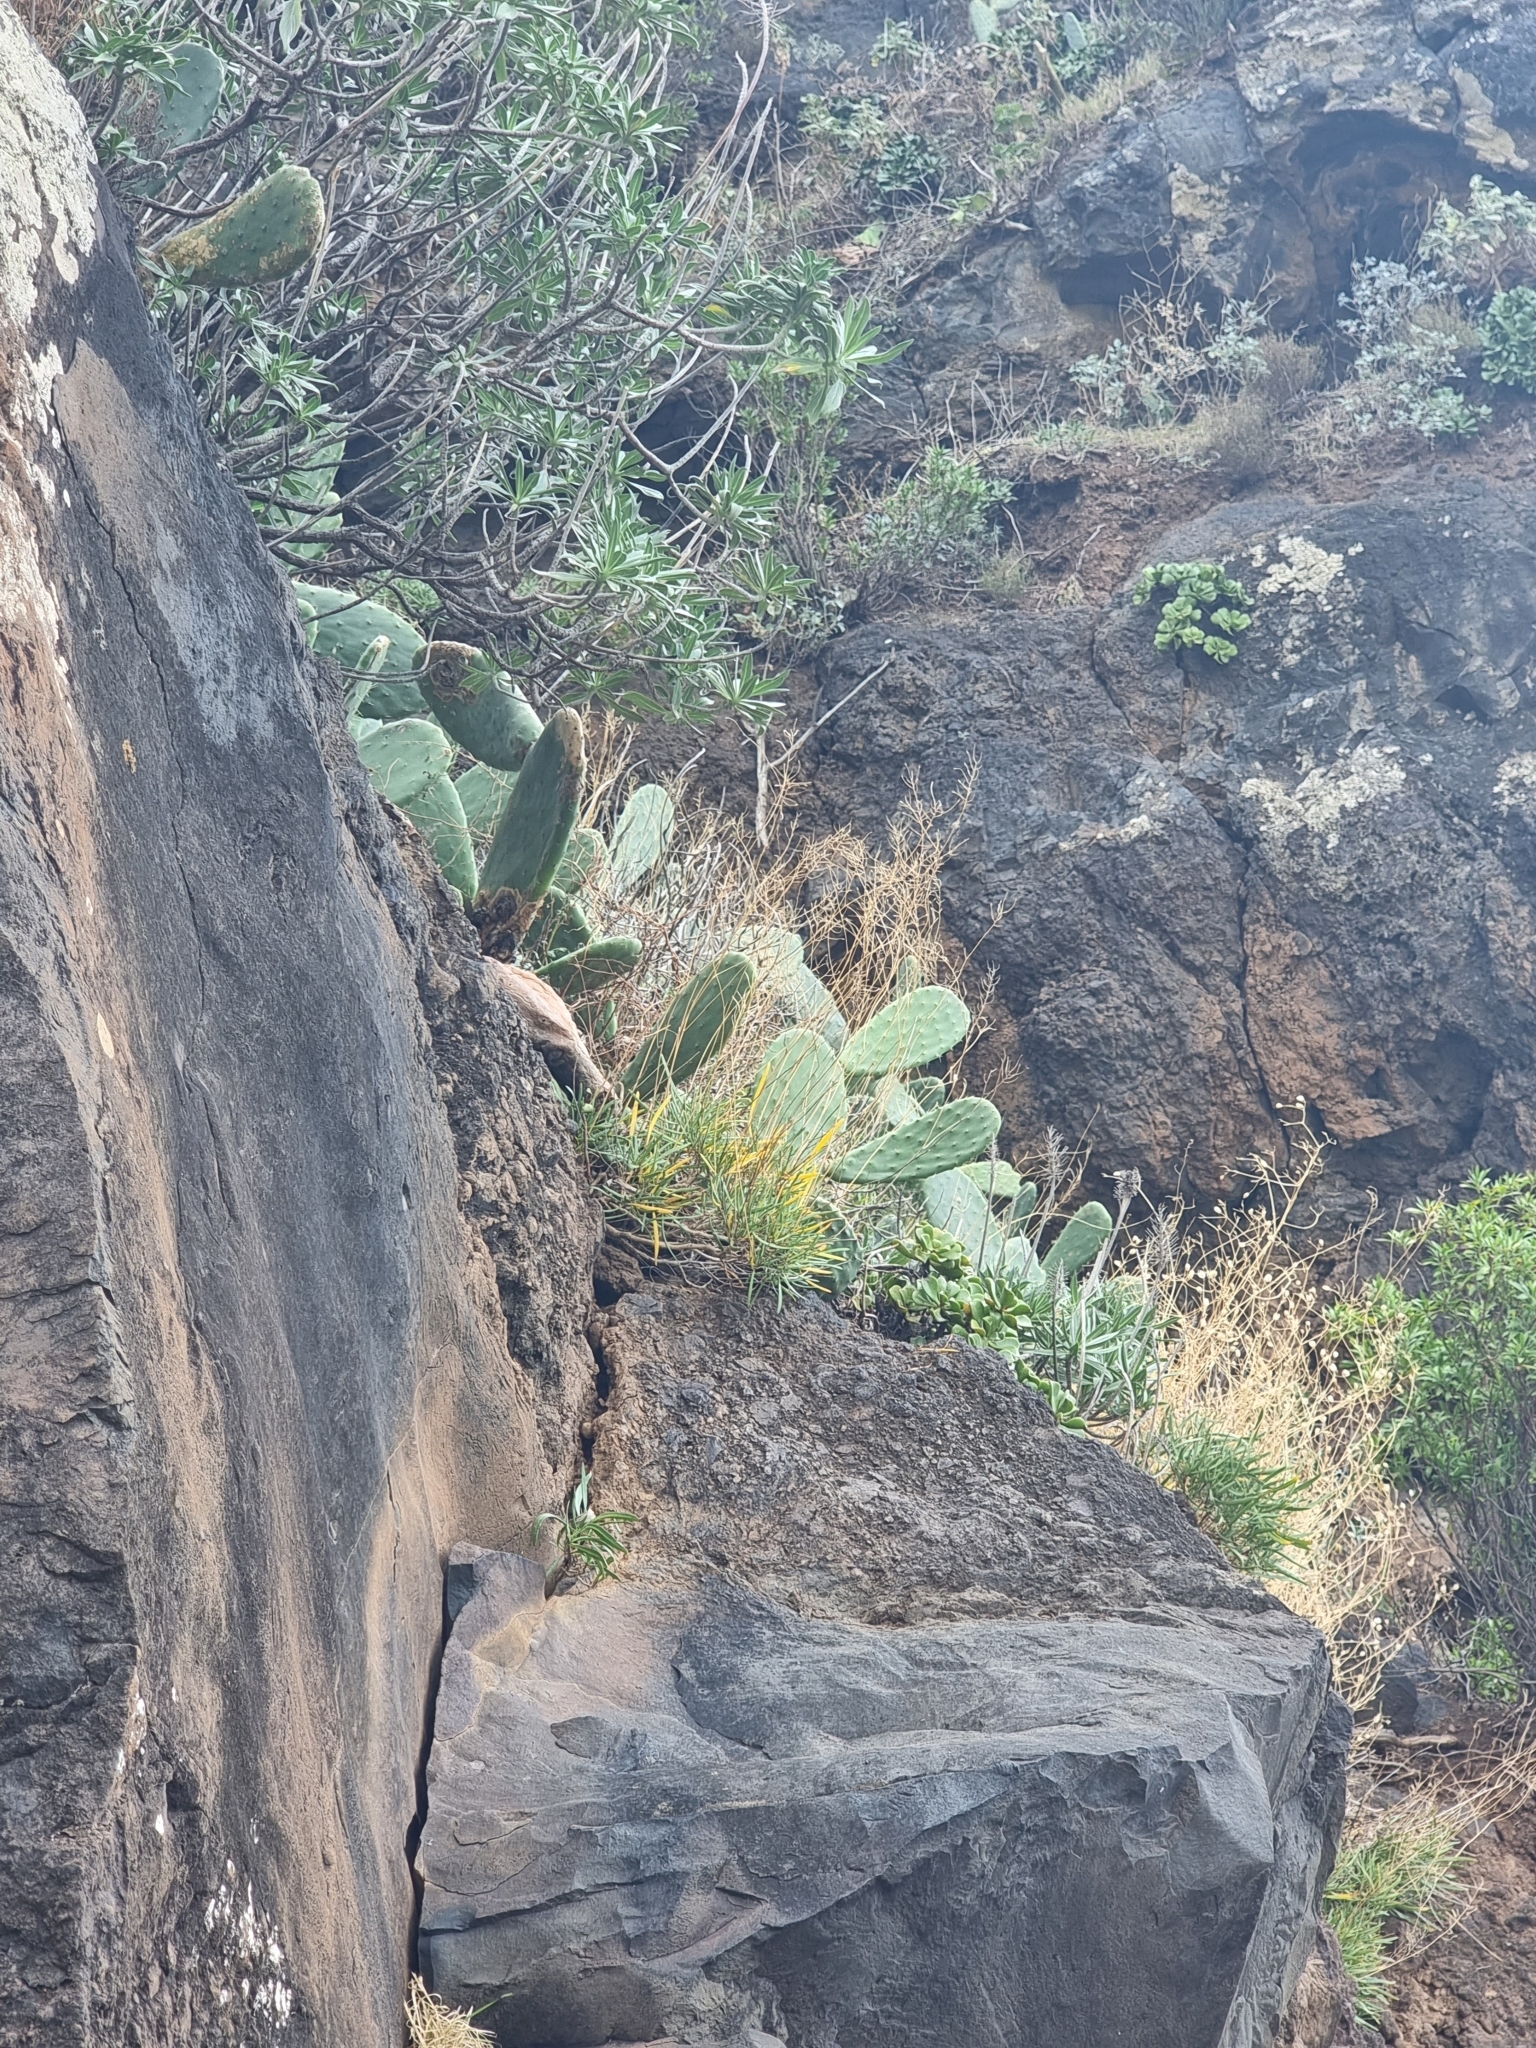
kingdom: Plantae
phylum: Tracheophyta
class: Magnoliopsida
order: Brassicales
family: Brassicaceae
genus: Sinapidendron
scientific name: Sinapidendron angustifolium
